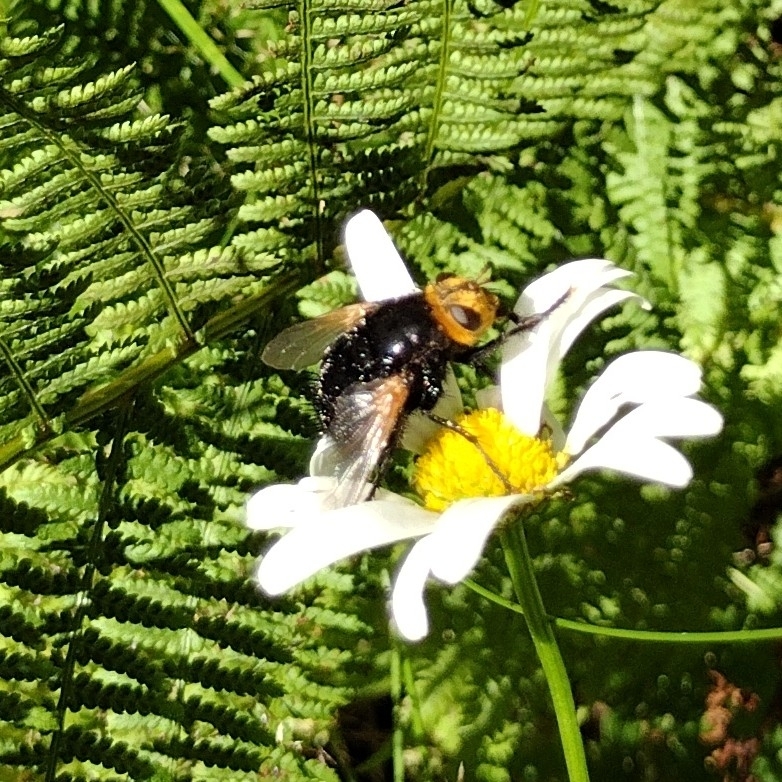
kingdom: Animalia
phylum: Arthropoda
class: Insecta
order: Diptera
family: Tachinidae
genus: Tachina
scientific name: Tachina grossa
